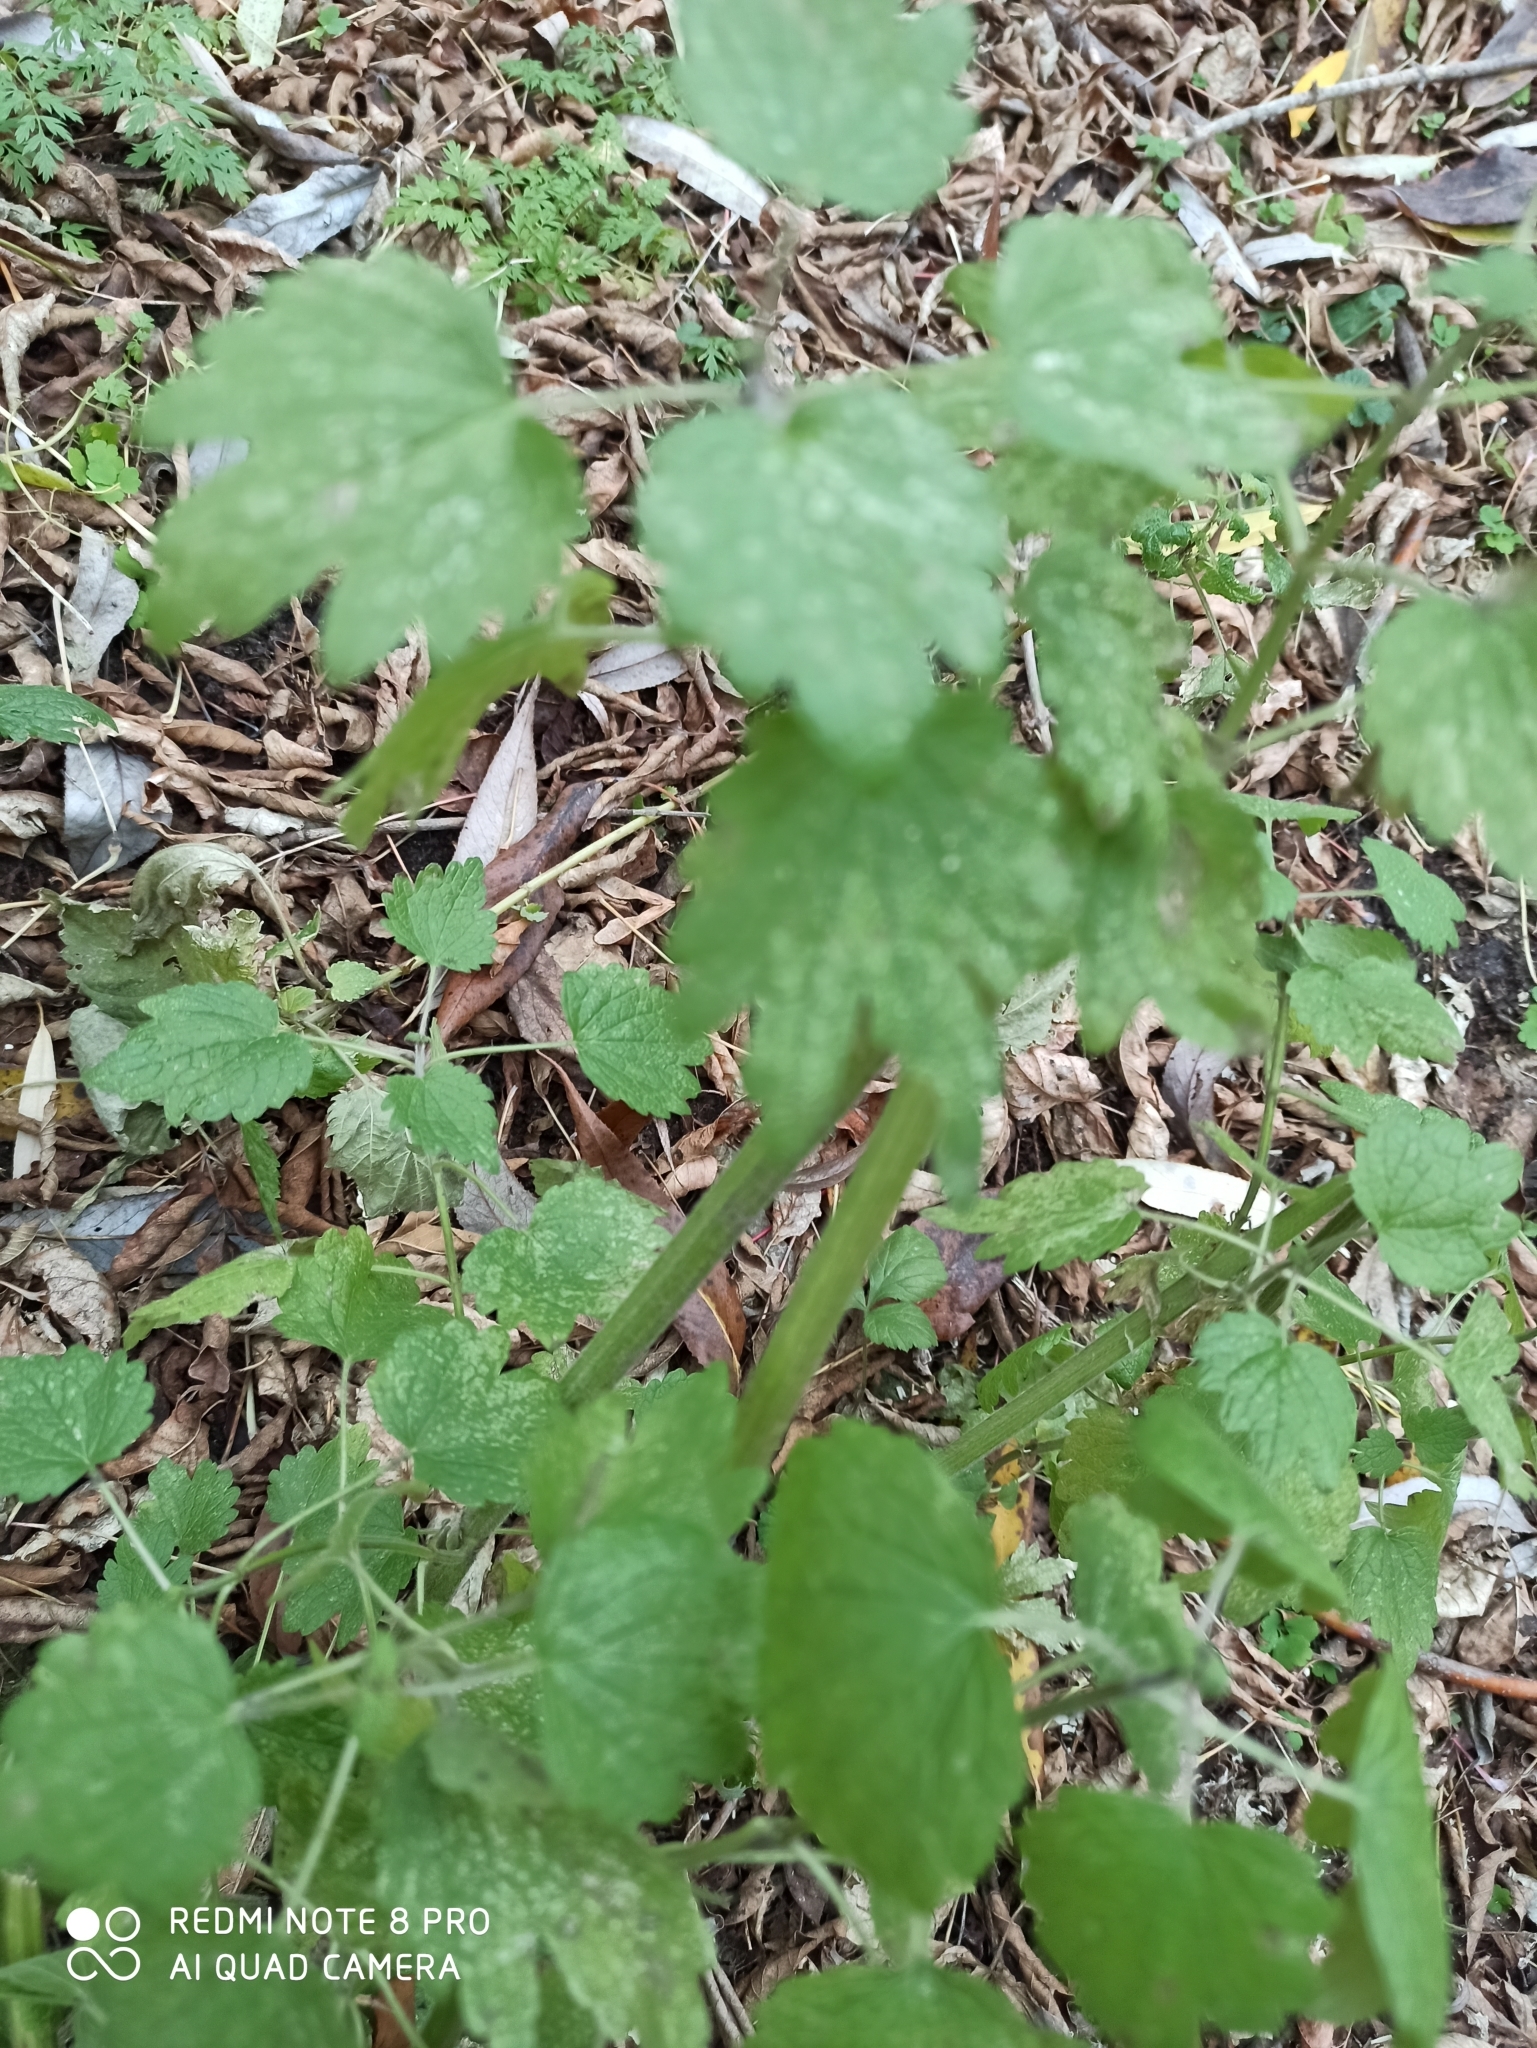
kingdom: Plantae
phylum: Tracheophyta
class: Magnoliopsida
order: Lamiales
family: Lamiaceae
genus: Leonurus
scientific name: Leonurus quinquelobatus
